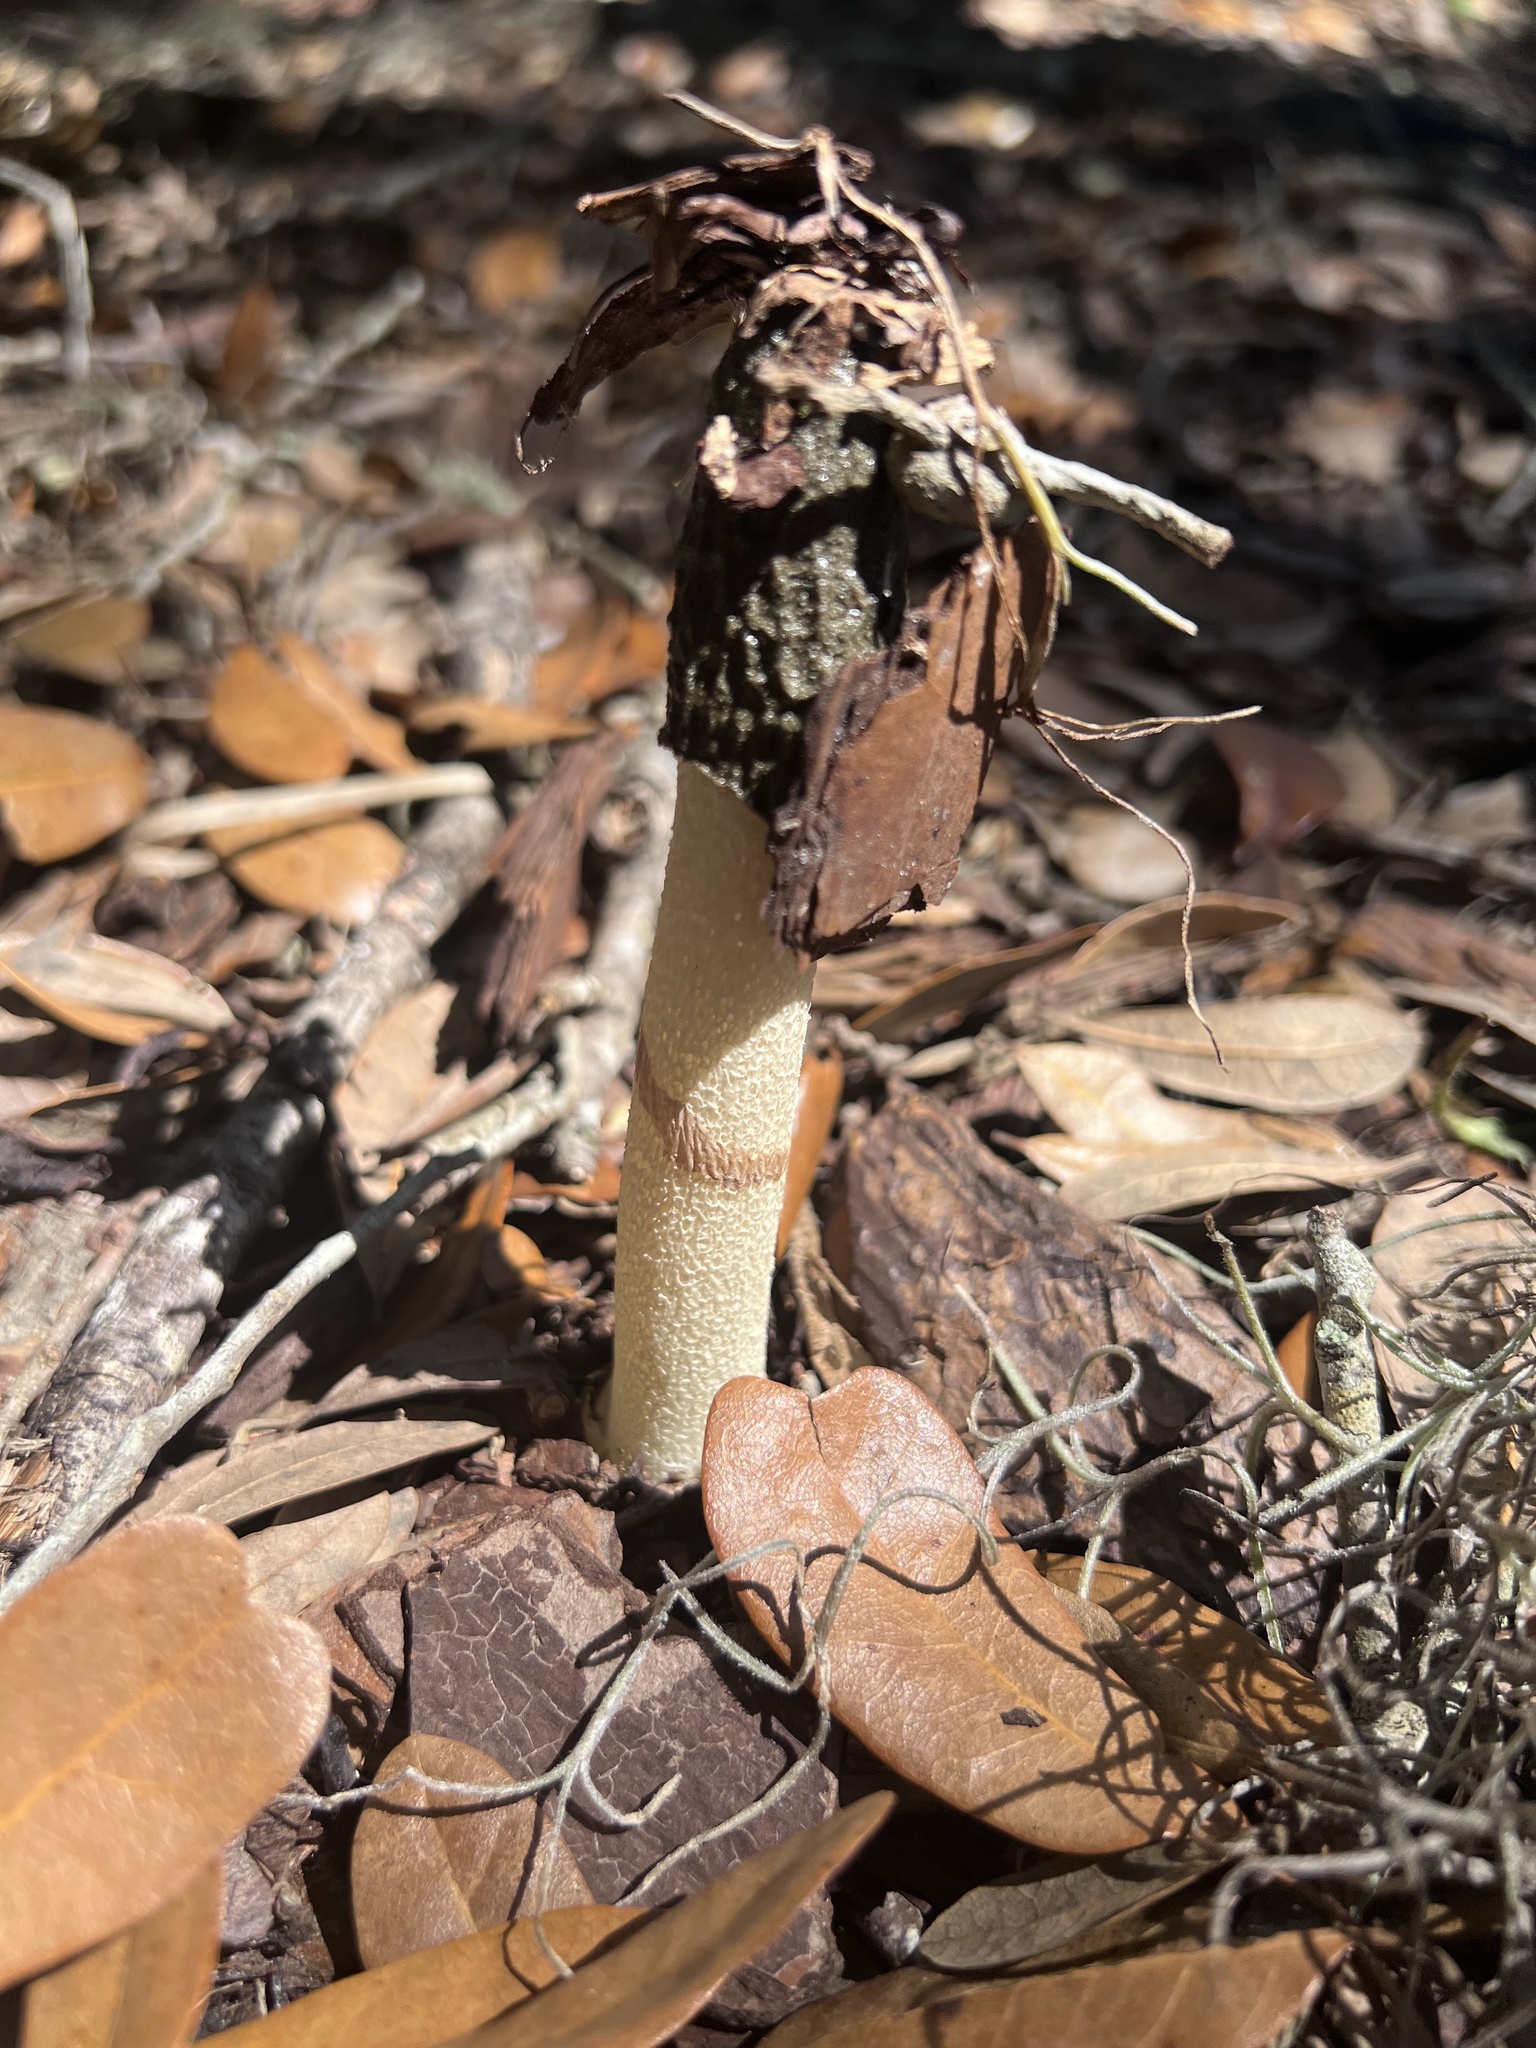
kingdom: Fungi
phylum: Basidiomycota
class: Agaricomycetes
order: Phallales
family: Phallaceae
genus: Phallus
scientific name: Phallus ravenelii
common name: Ravenel's stinkhorn
